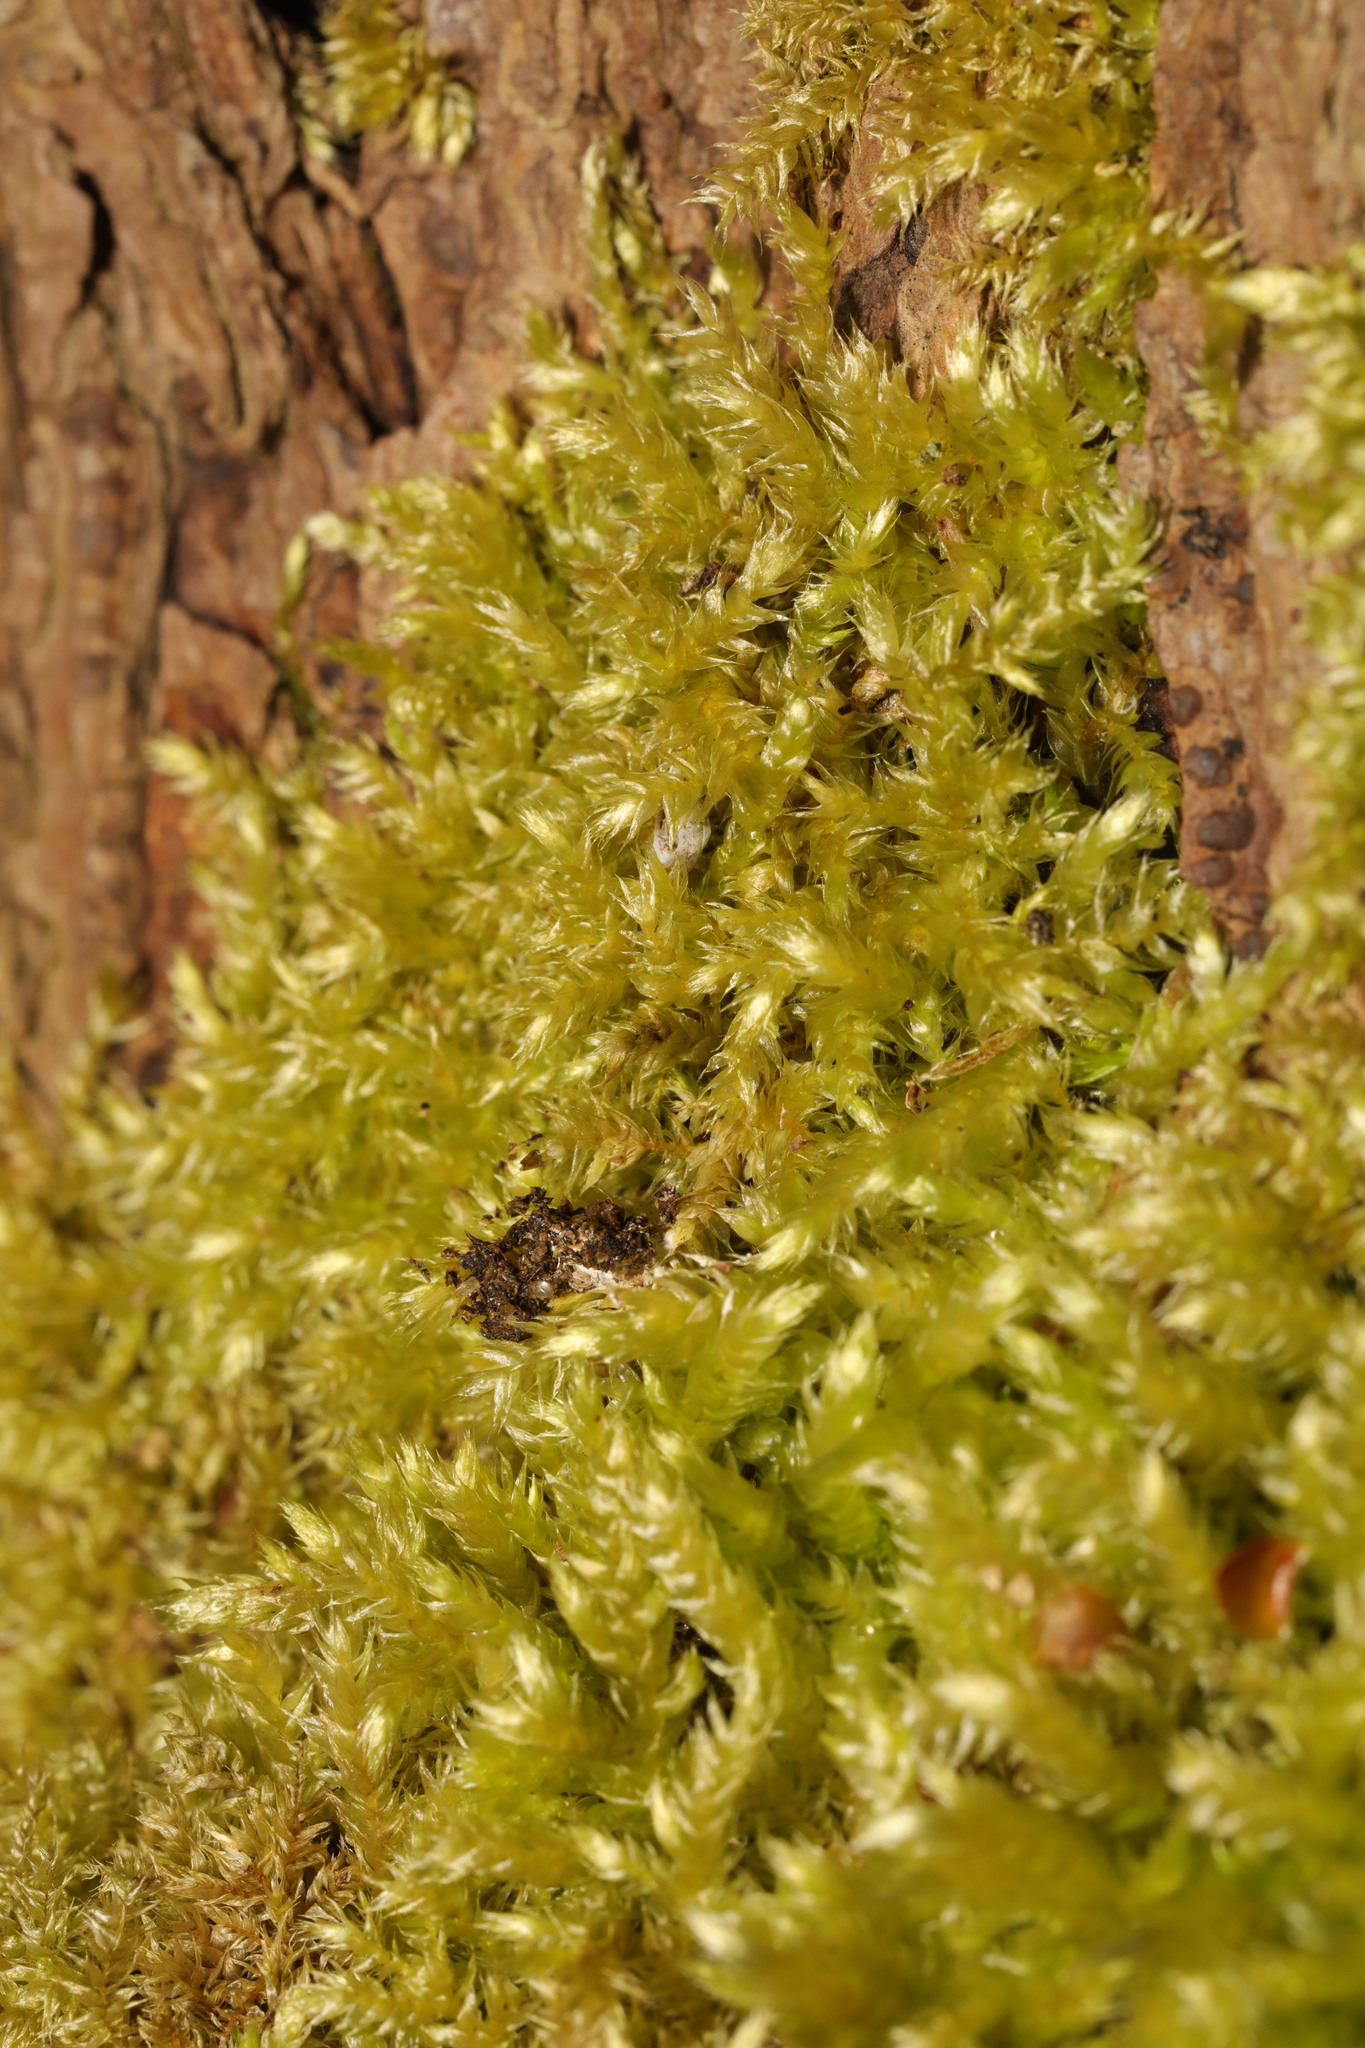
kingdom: Plantae
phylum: Bryophyta
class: Bryopsida
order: Hypnales
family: Brachytheciaceae
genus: Brachythecium
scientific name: Brachythecium rutabulum
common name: Rough-stalked feather-moss
